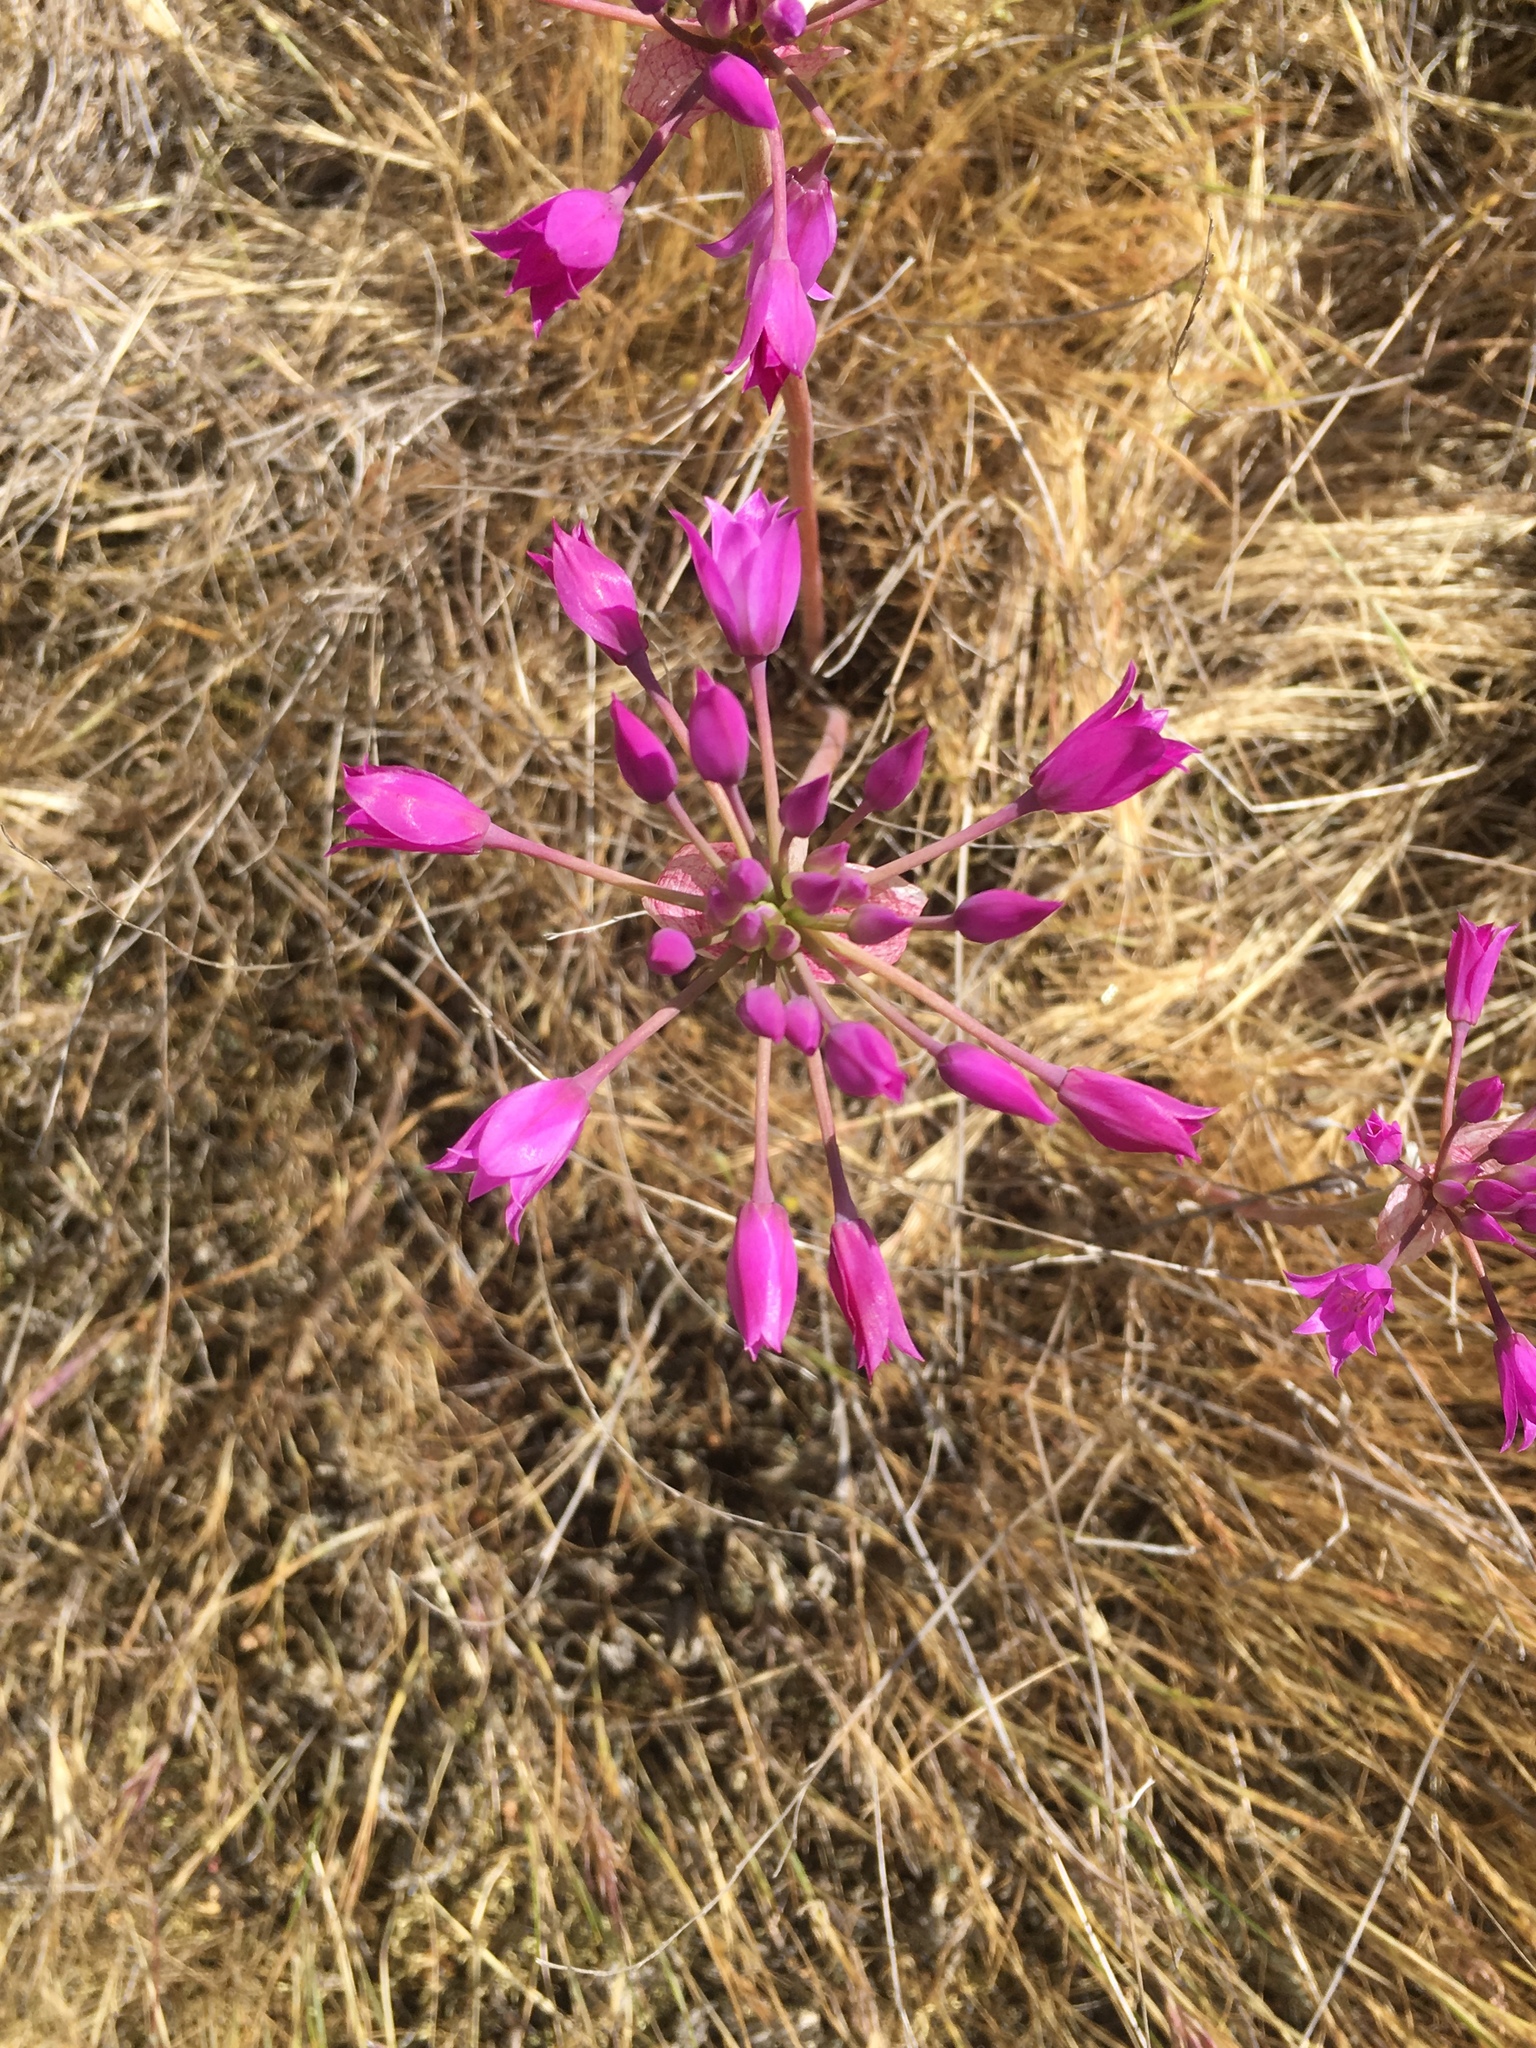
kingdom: Plantae
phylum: Tracheophyta
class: Liliopsida
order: Asparagales
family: Amaryllidaceae
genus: Allium
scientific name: Allium peninsulare
